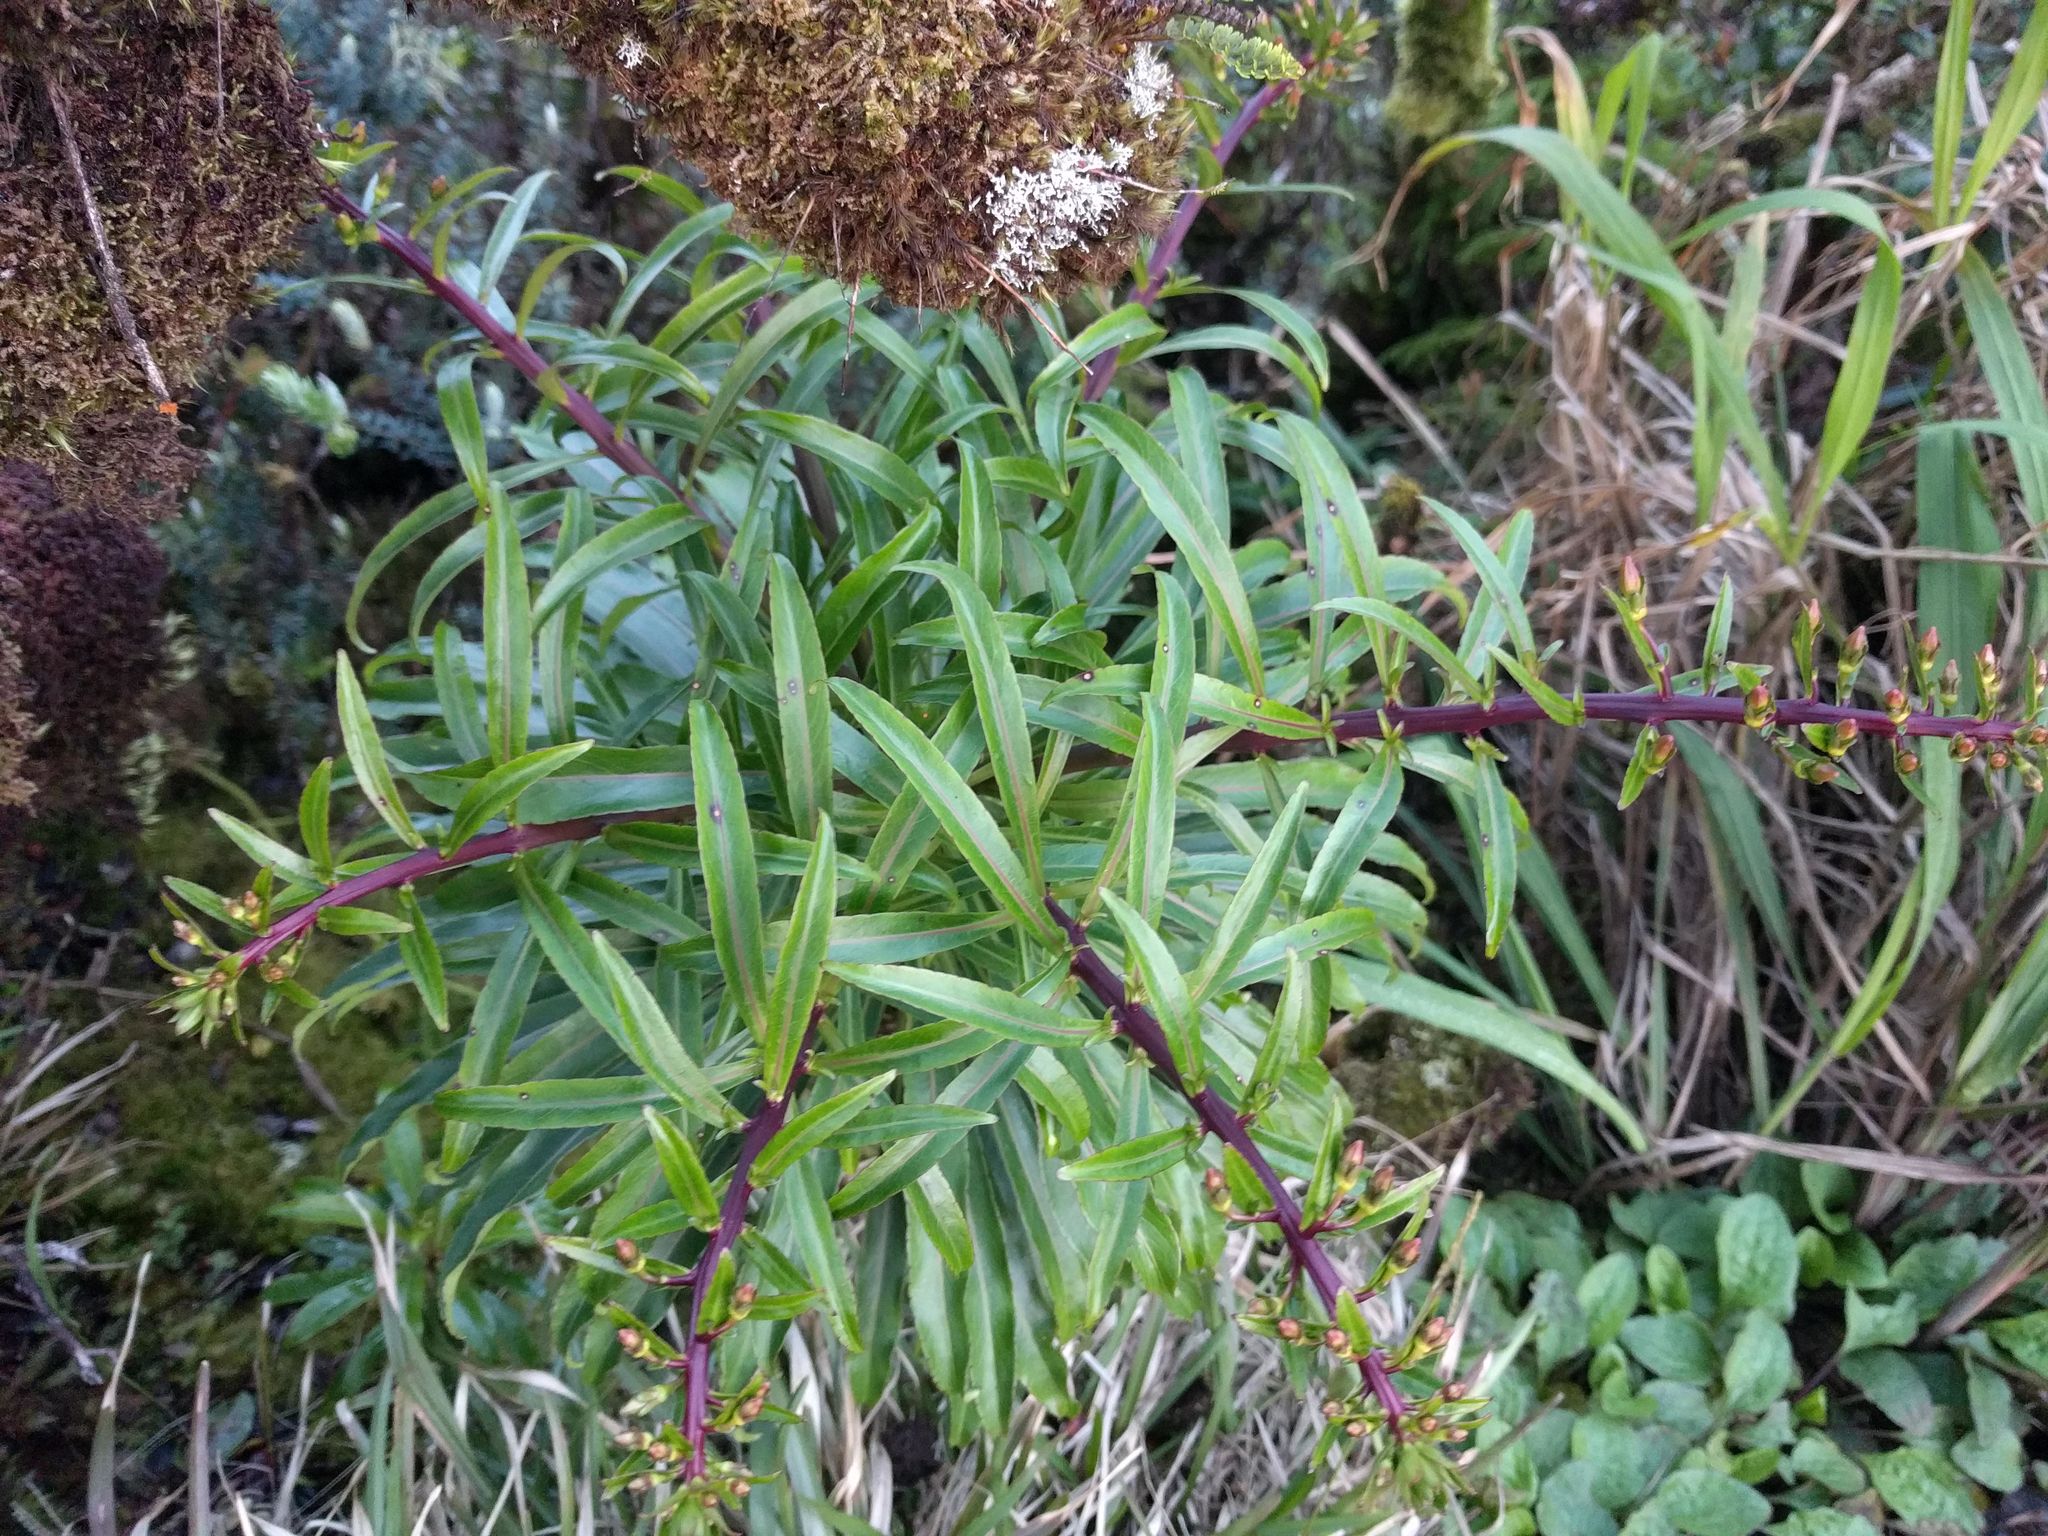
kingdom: Plantae
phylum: Tracheophyta
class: Magnoliopsida
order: Asterales
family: Campanulaceae
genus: Trematolobelia
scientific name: Trematolobelia kaalae
